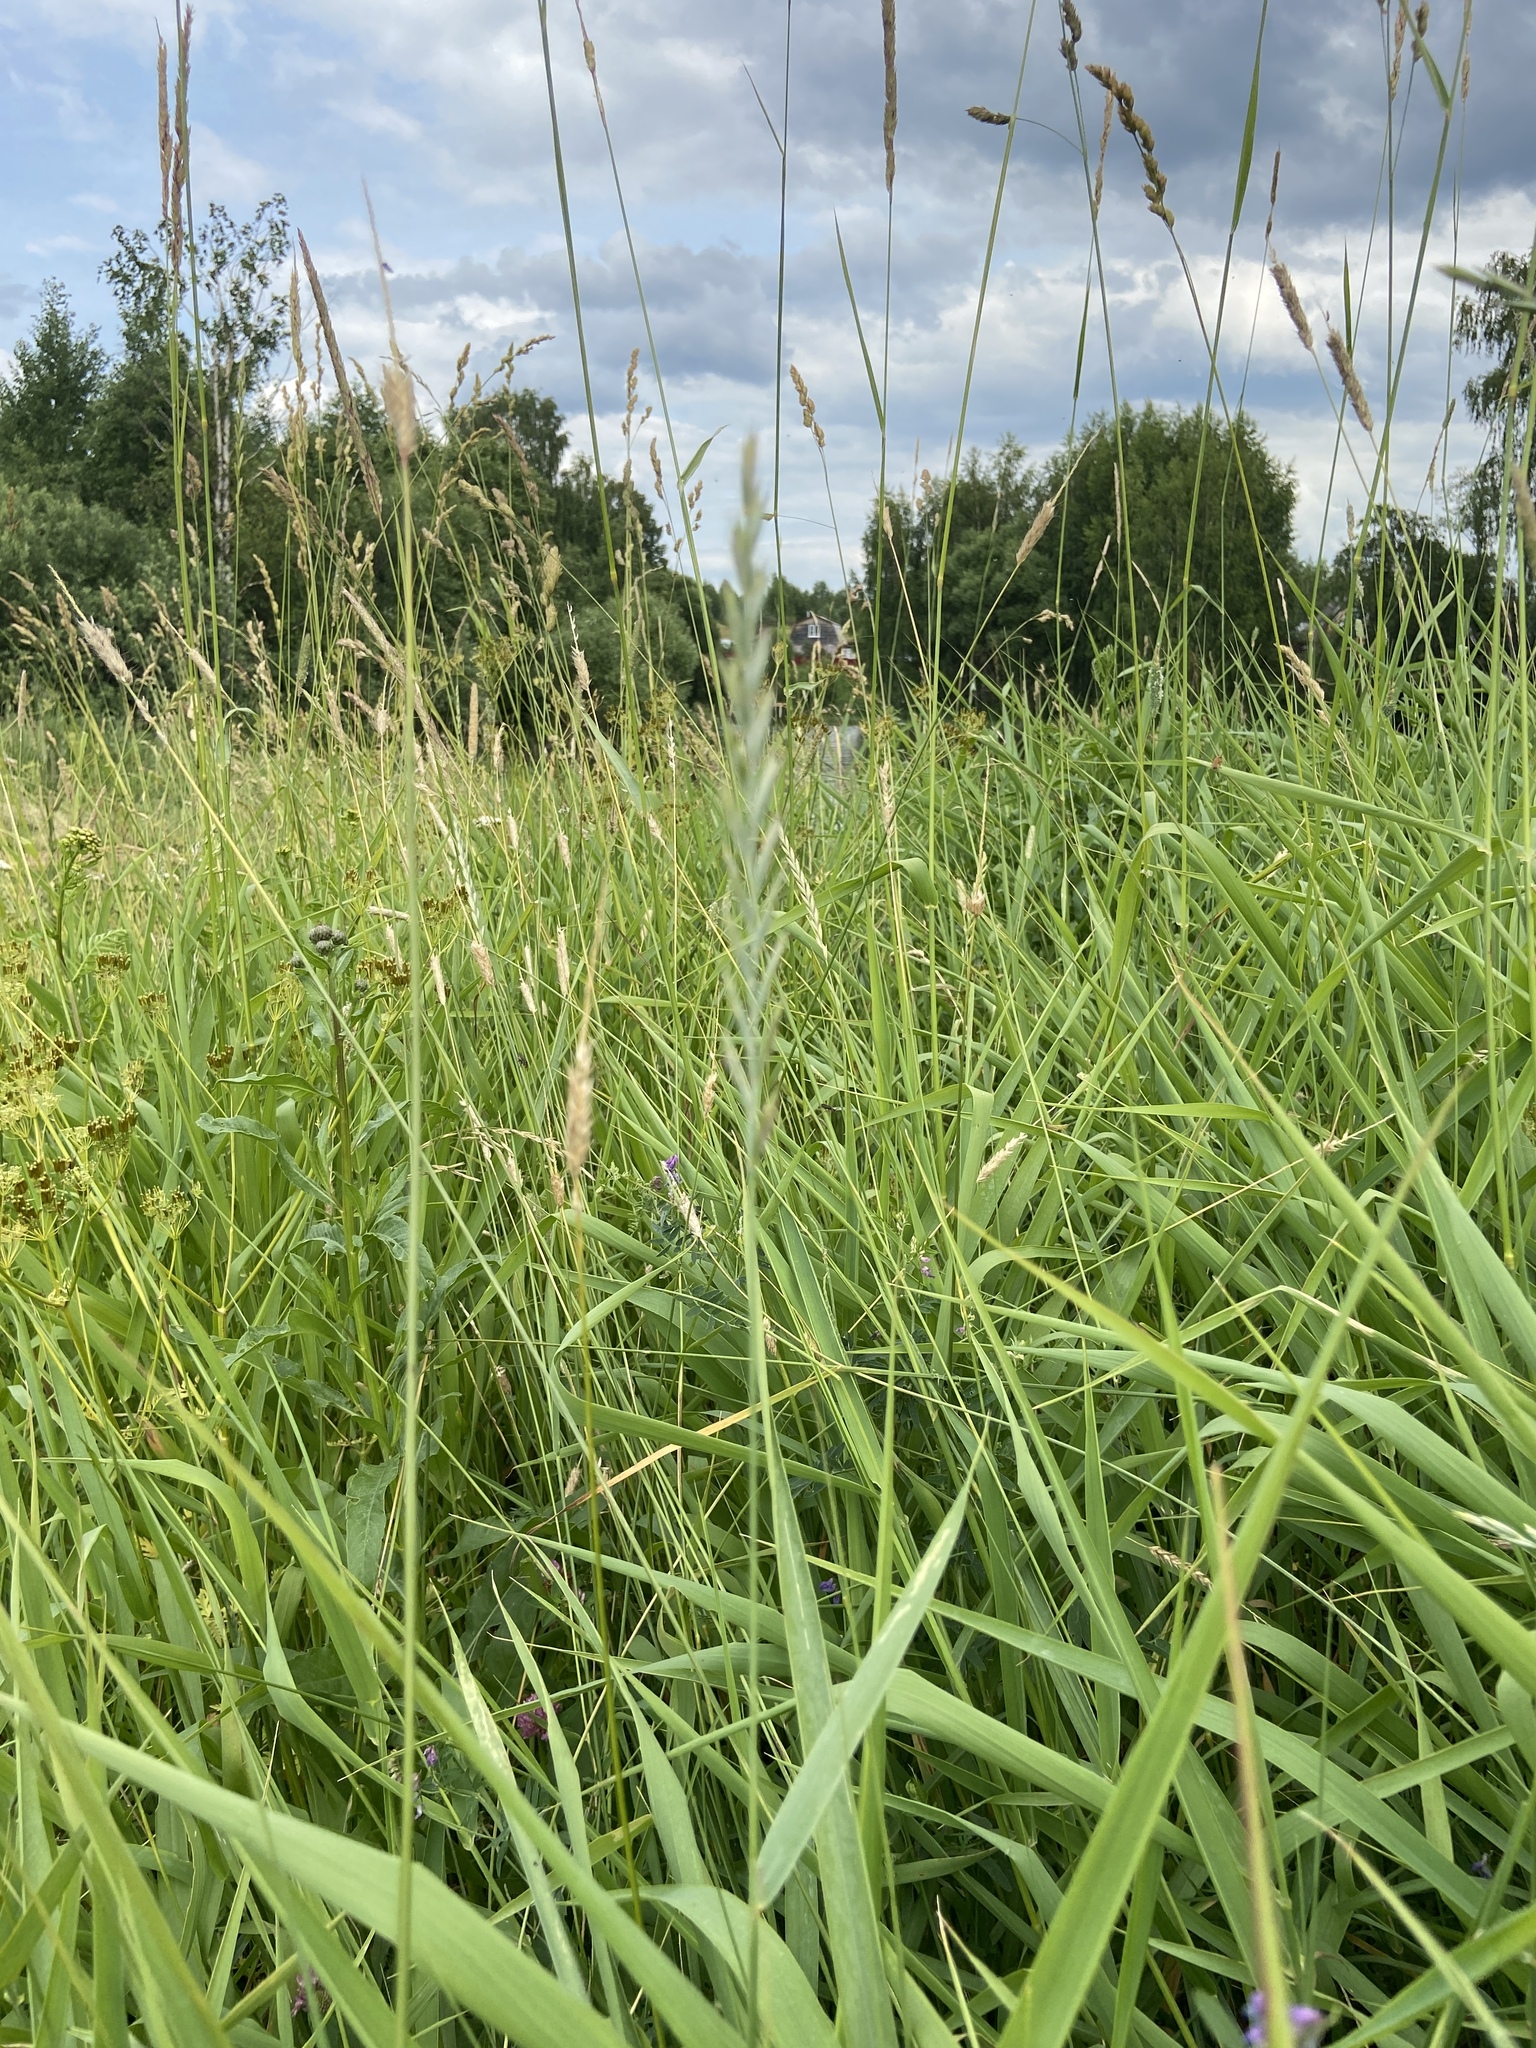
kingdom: Plantae
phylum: Tracheophyta
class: Liliopsida
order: Poales
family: Poaceae
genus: Elymus
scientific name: Elymus repens
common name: Quackgrass
